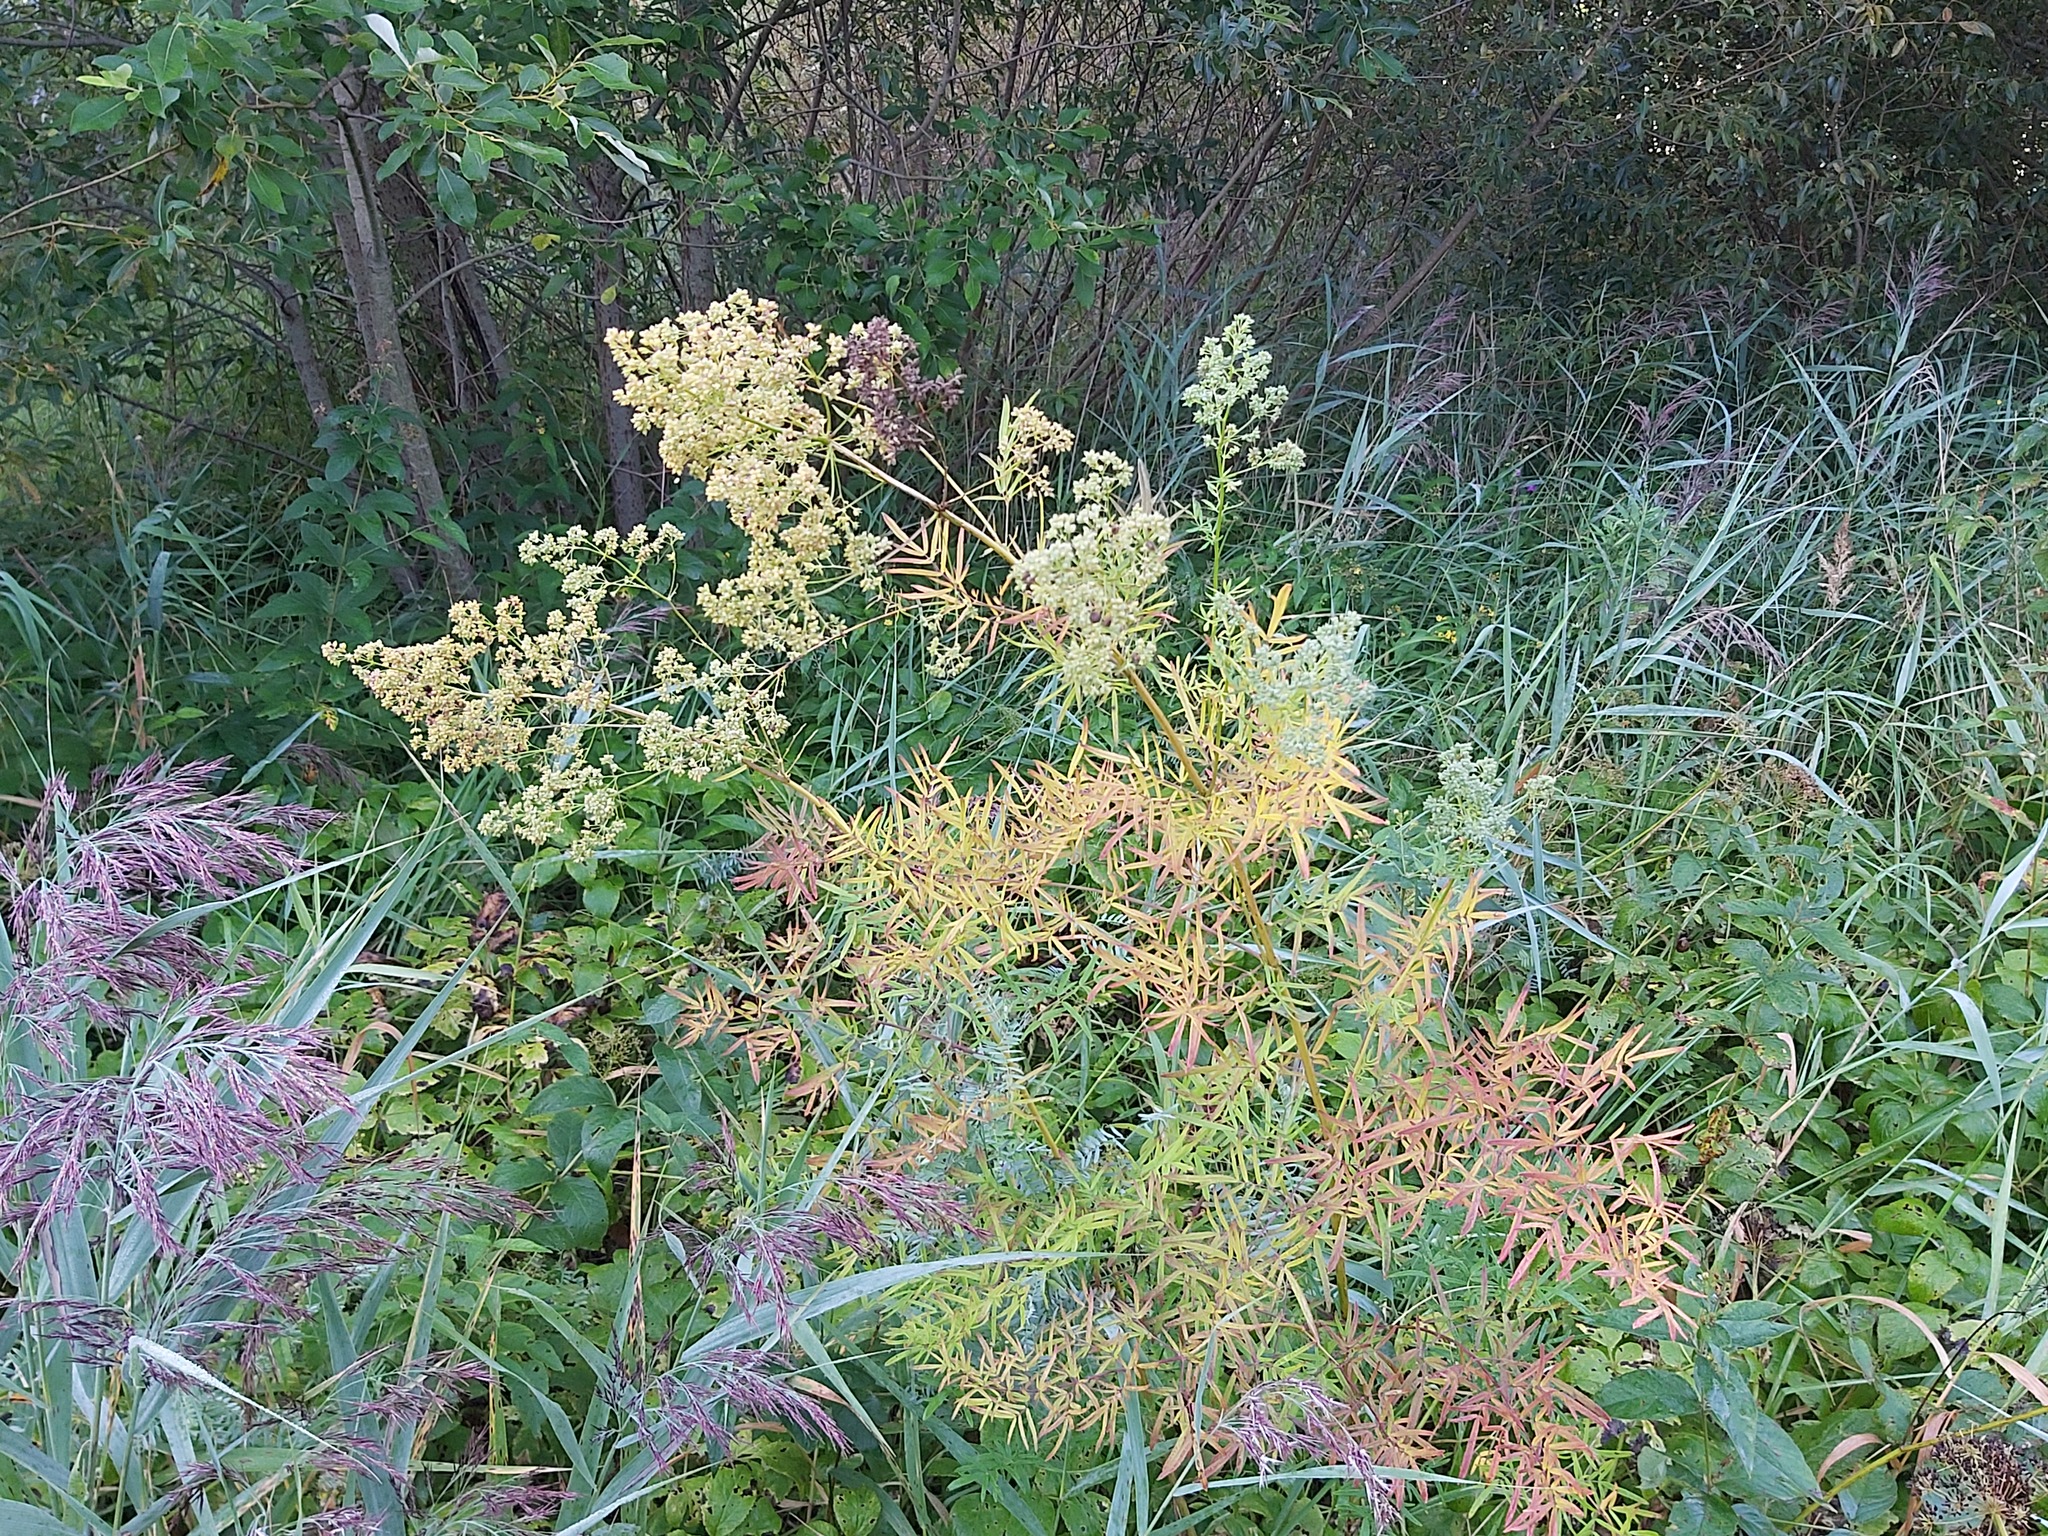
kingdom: Plantae
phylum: Tracheophyta
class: Magnoliopsida
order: Ranunculales
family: Ranunculaceae
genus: Thalictrum
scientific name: Thalictrum lucidum
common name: Shining meadow-rue
